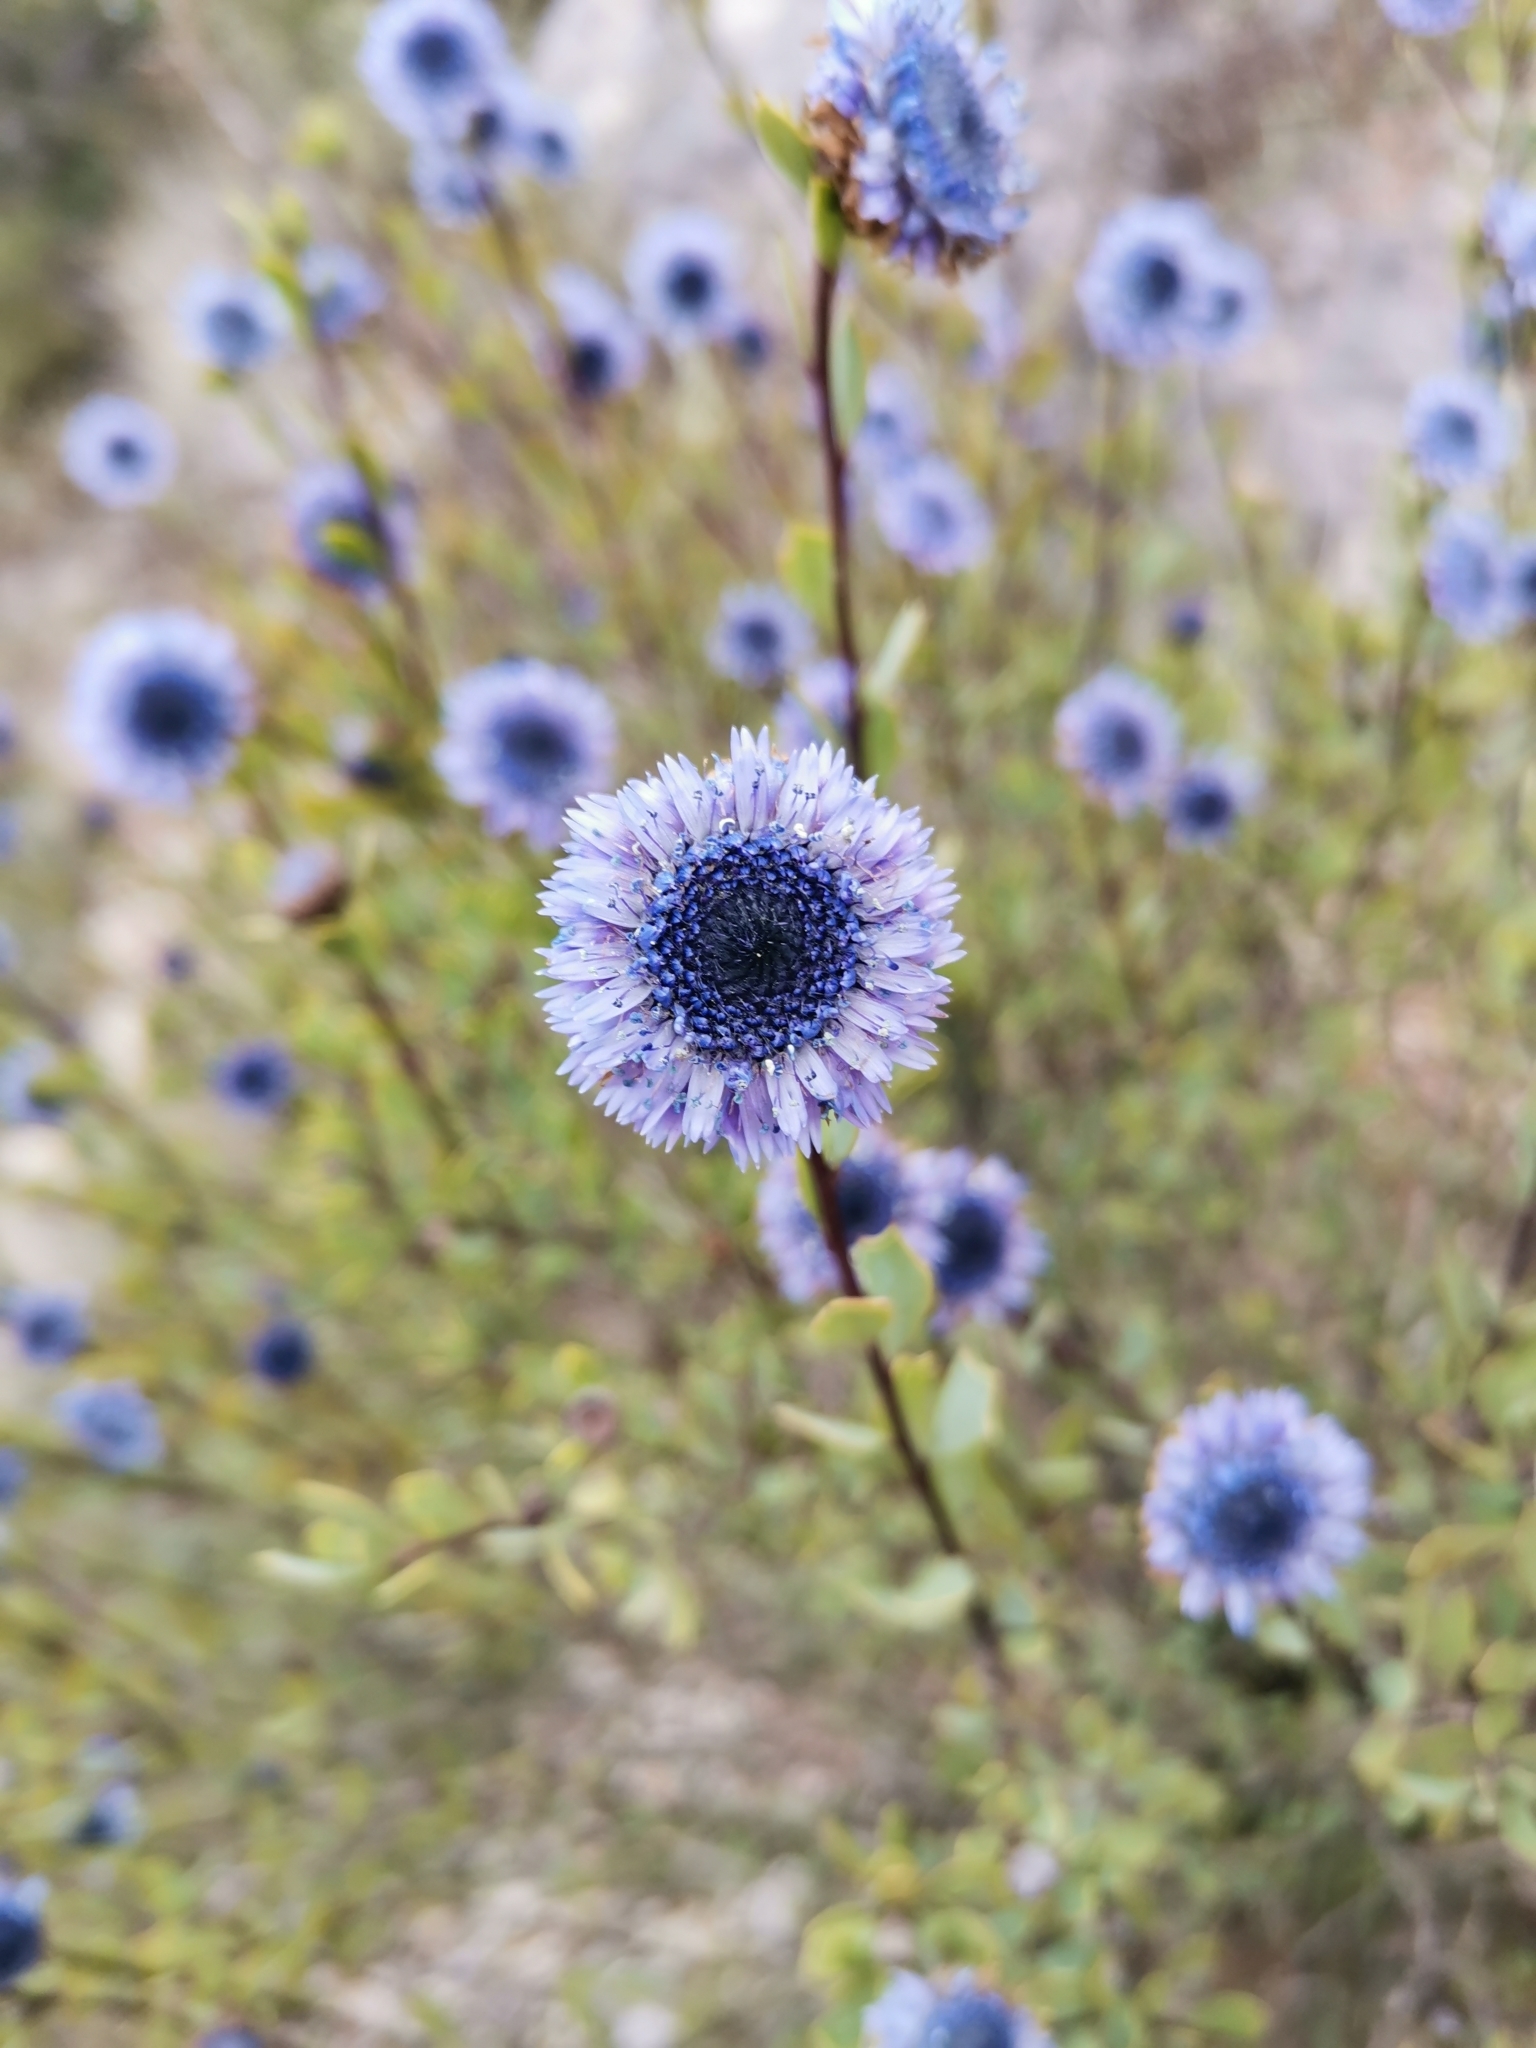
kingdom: Plantae
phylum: Tracheophyta
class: Magnoliopsida
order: Lamiales
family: Plantaginaceae
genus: Globularia
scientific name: Globularia alypum
